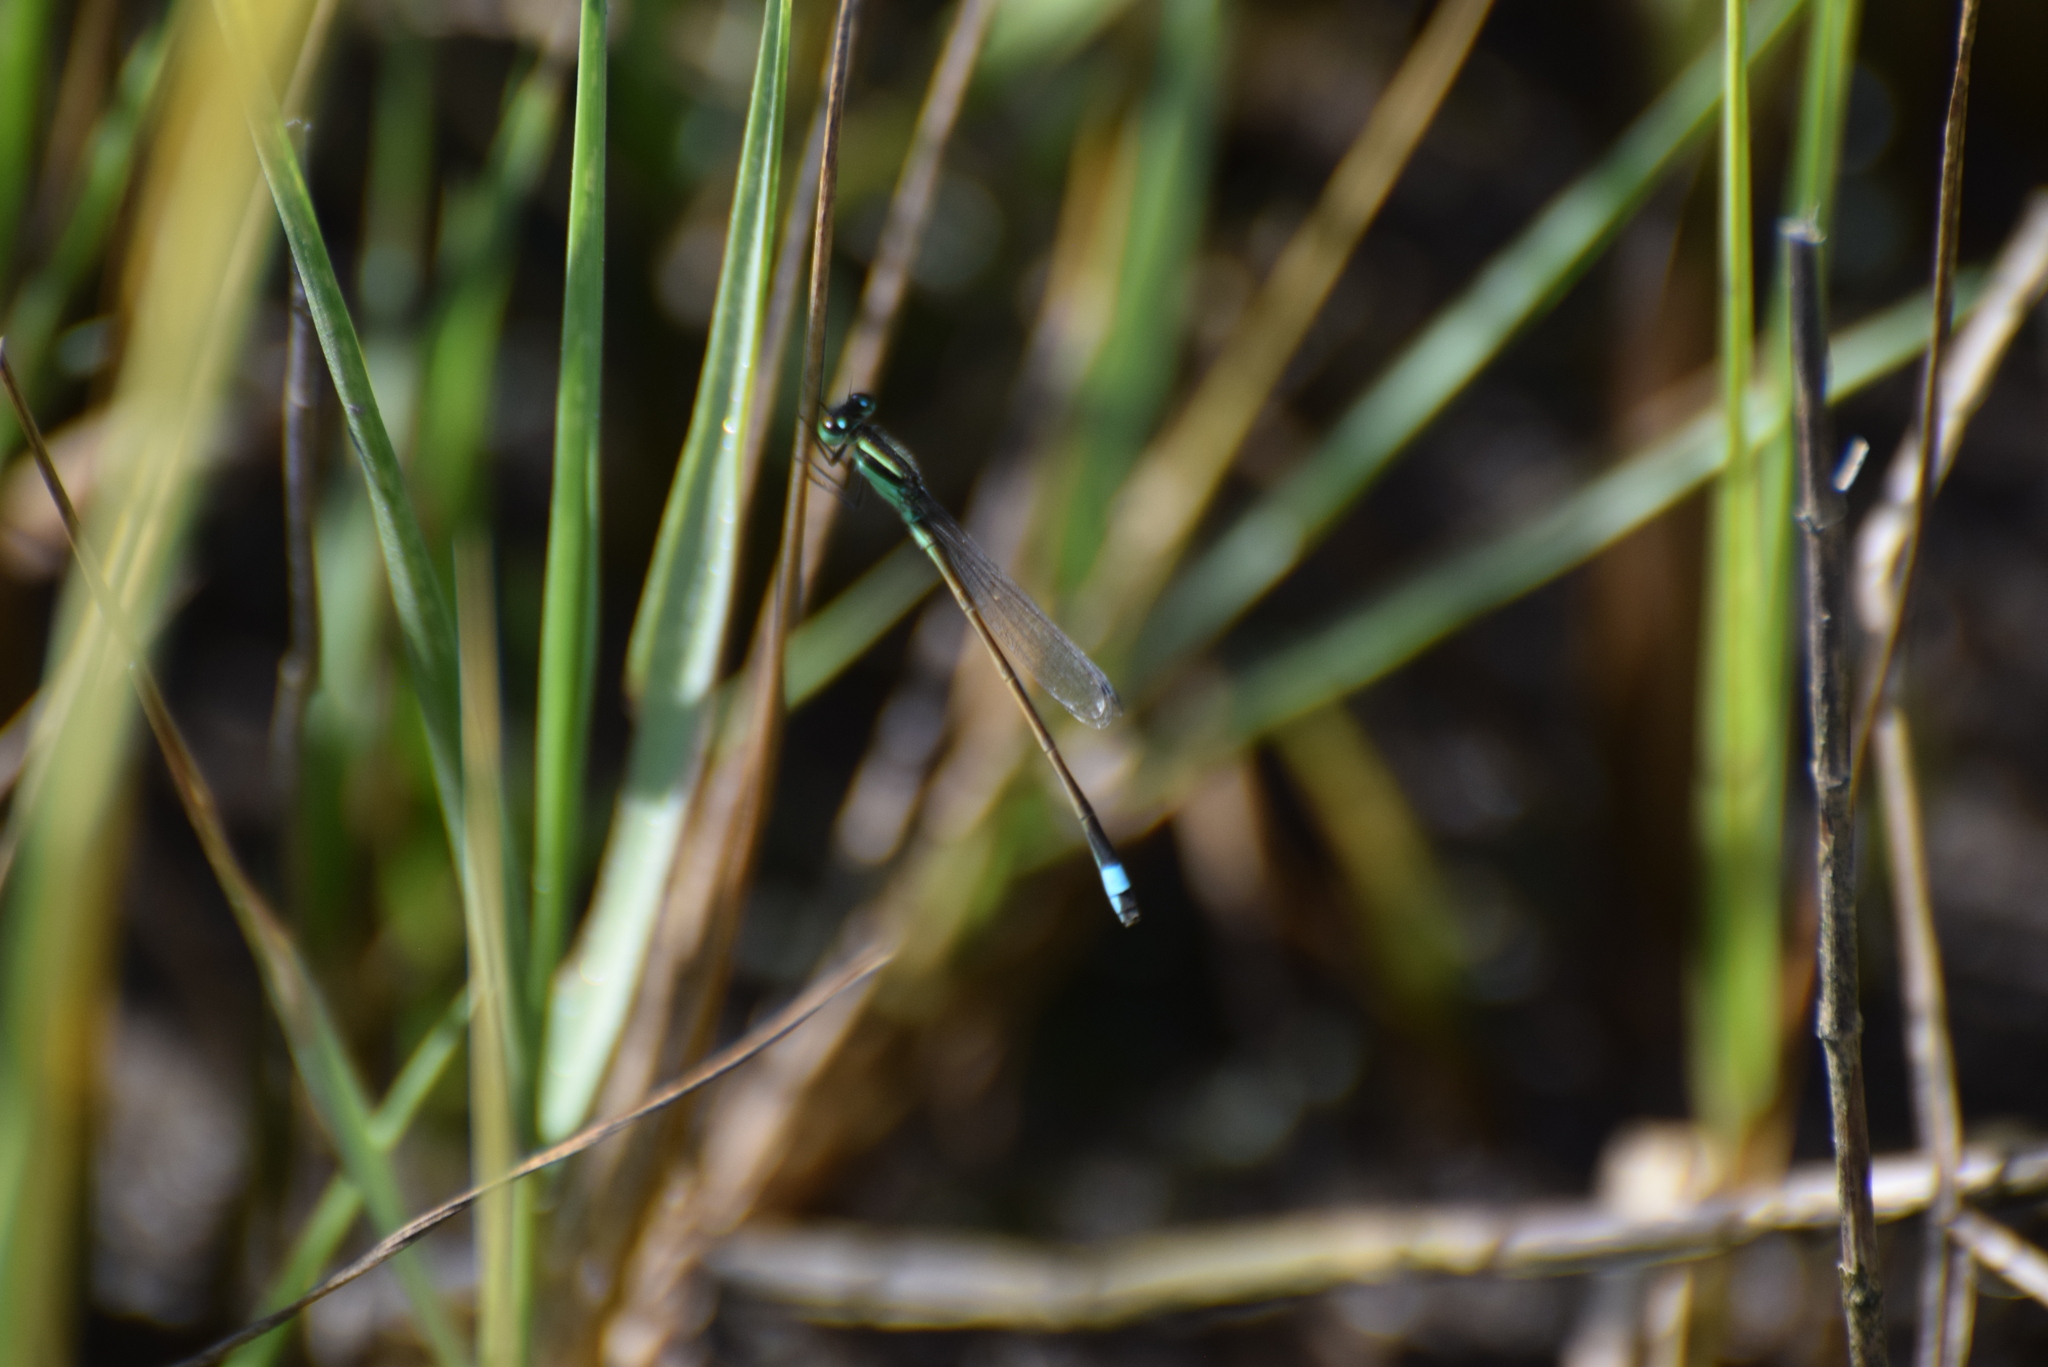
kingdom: Animalia
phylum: Arthropoda
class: Insecta
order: Odonata
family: Coenagrionidae
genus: Ischnura
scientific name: Ischnura ramburii
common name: Rambur's forktail
